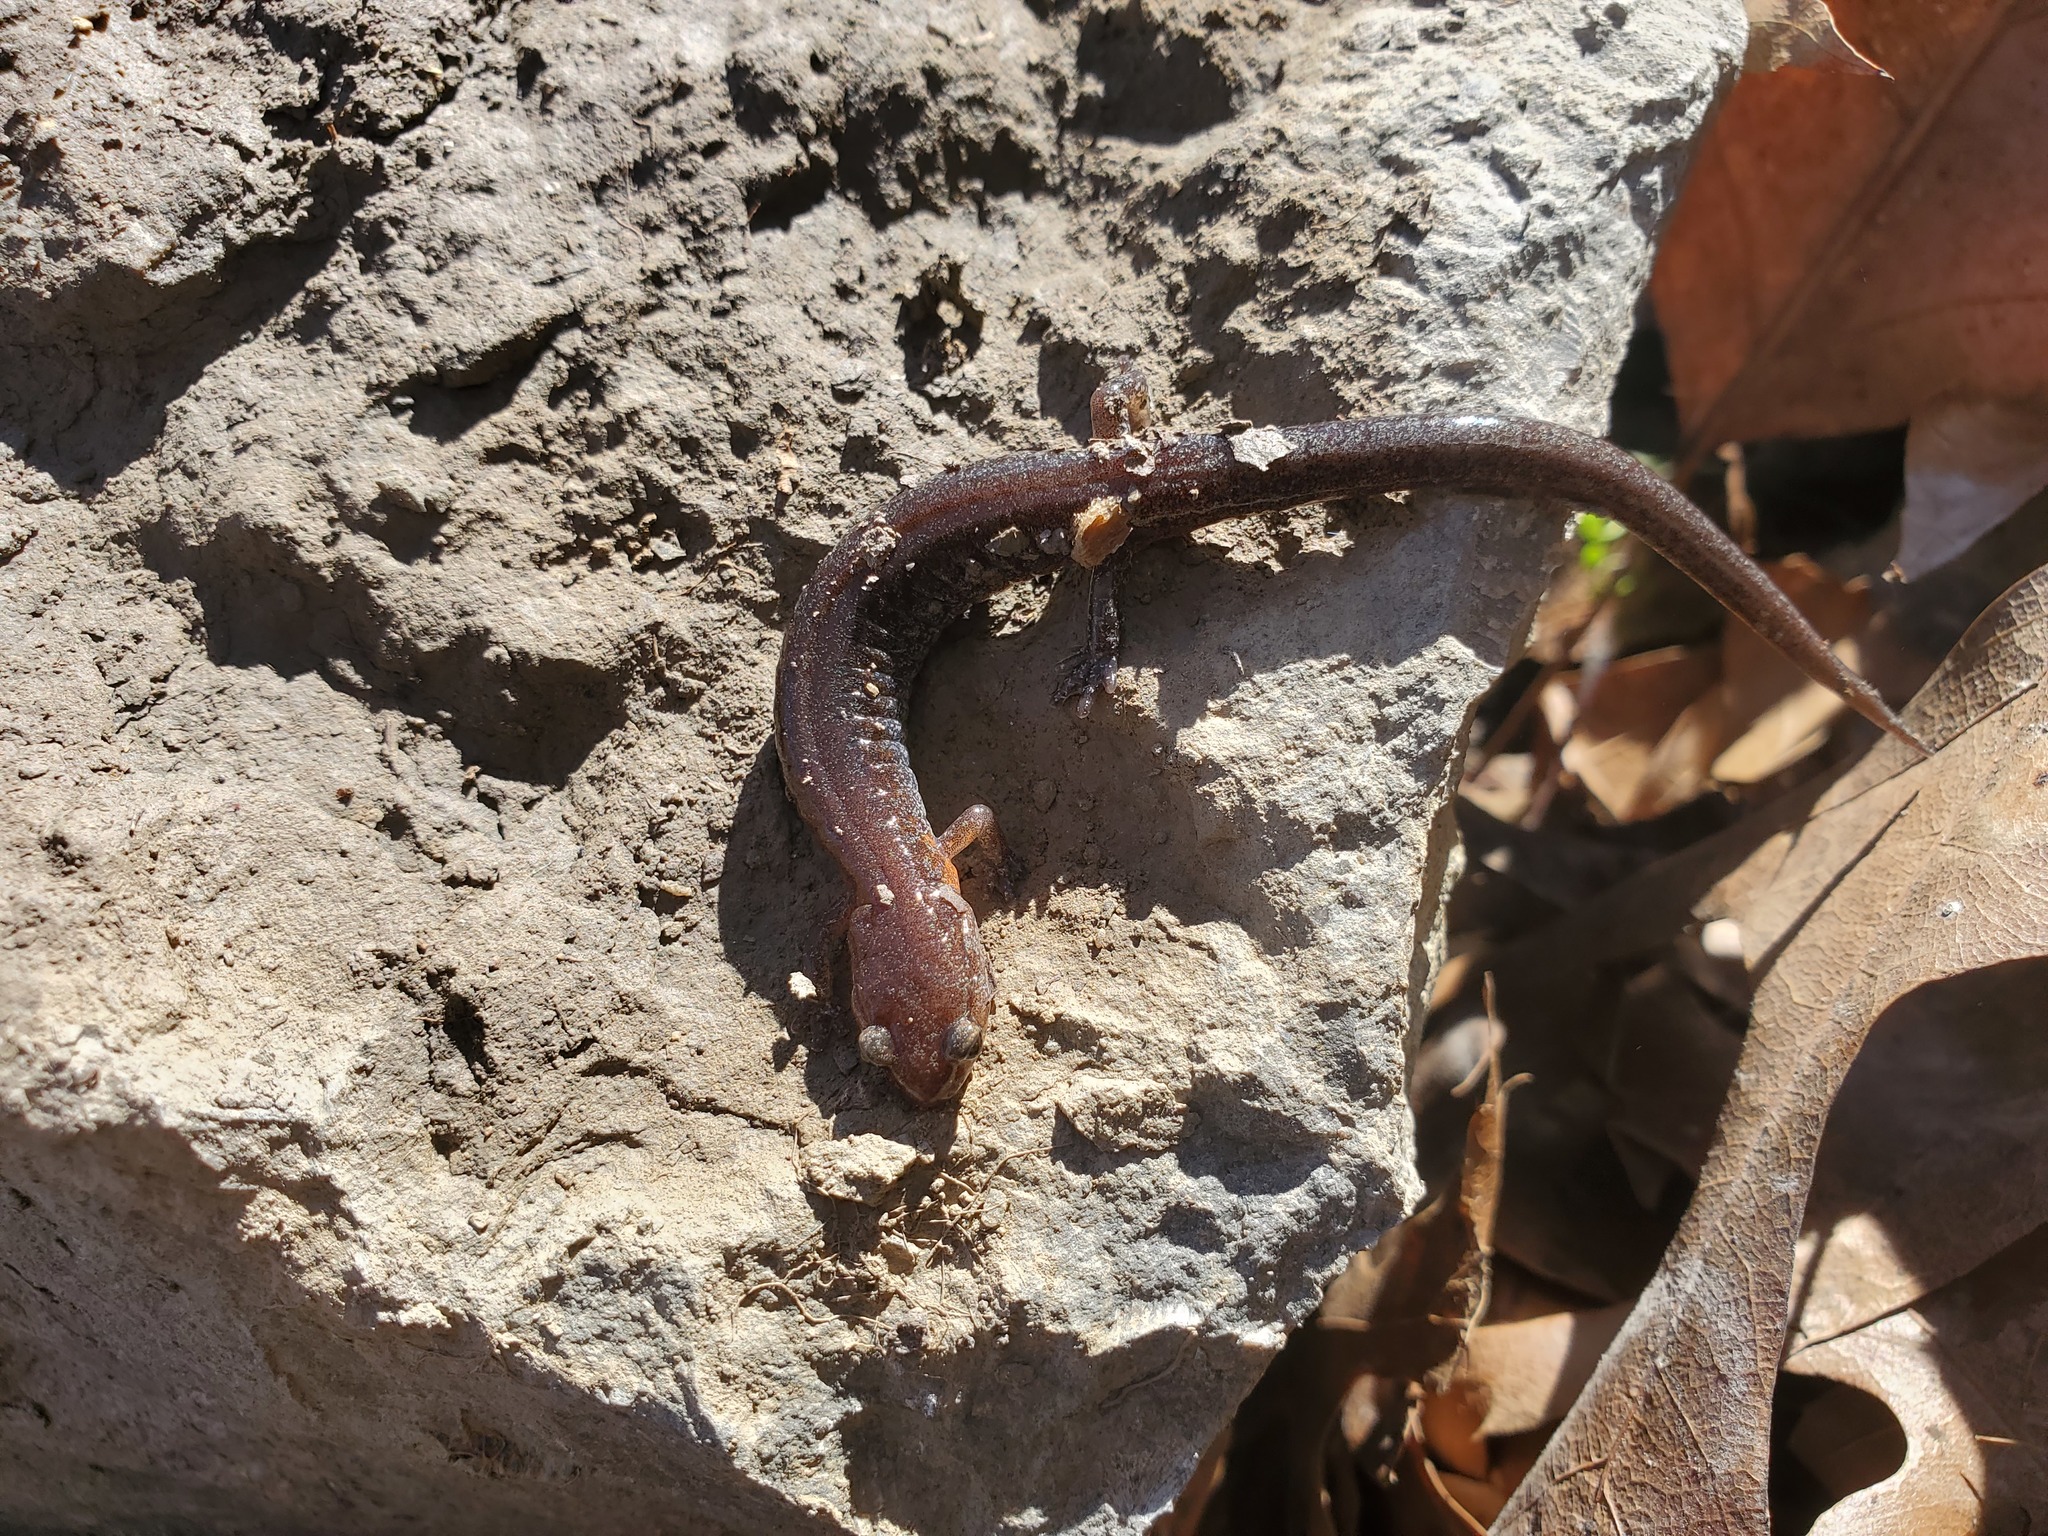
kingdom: Animalia
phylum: Chordata
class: Amphibia
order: Caudata
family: Plethodontidae
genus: Plethodon
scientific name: Plethodon dorsalis
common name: Northern zigzag salamander
